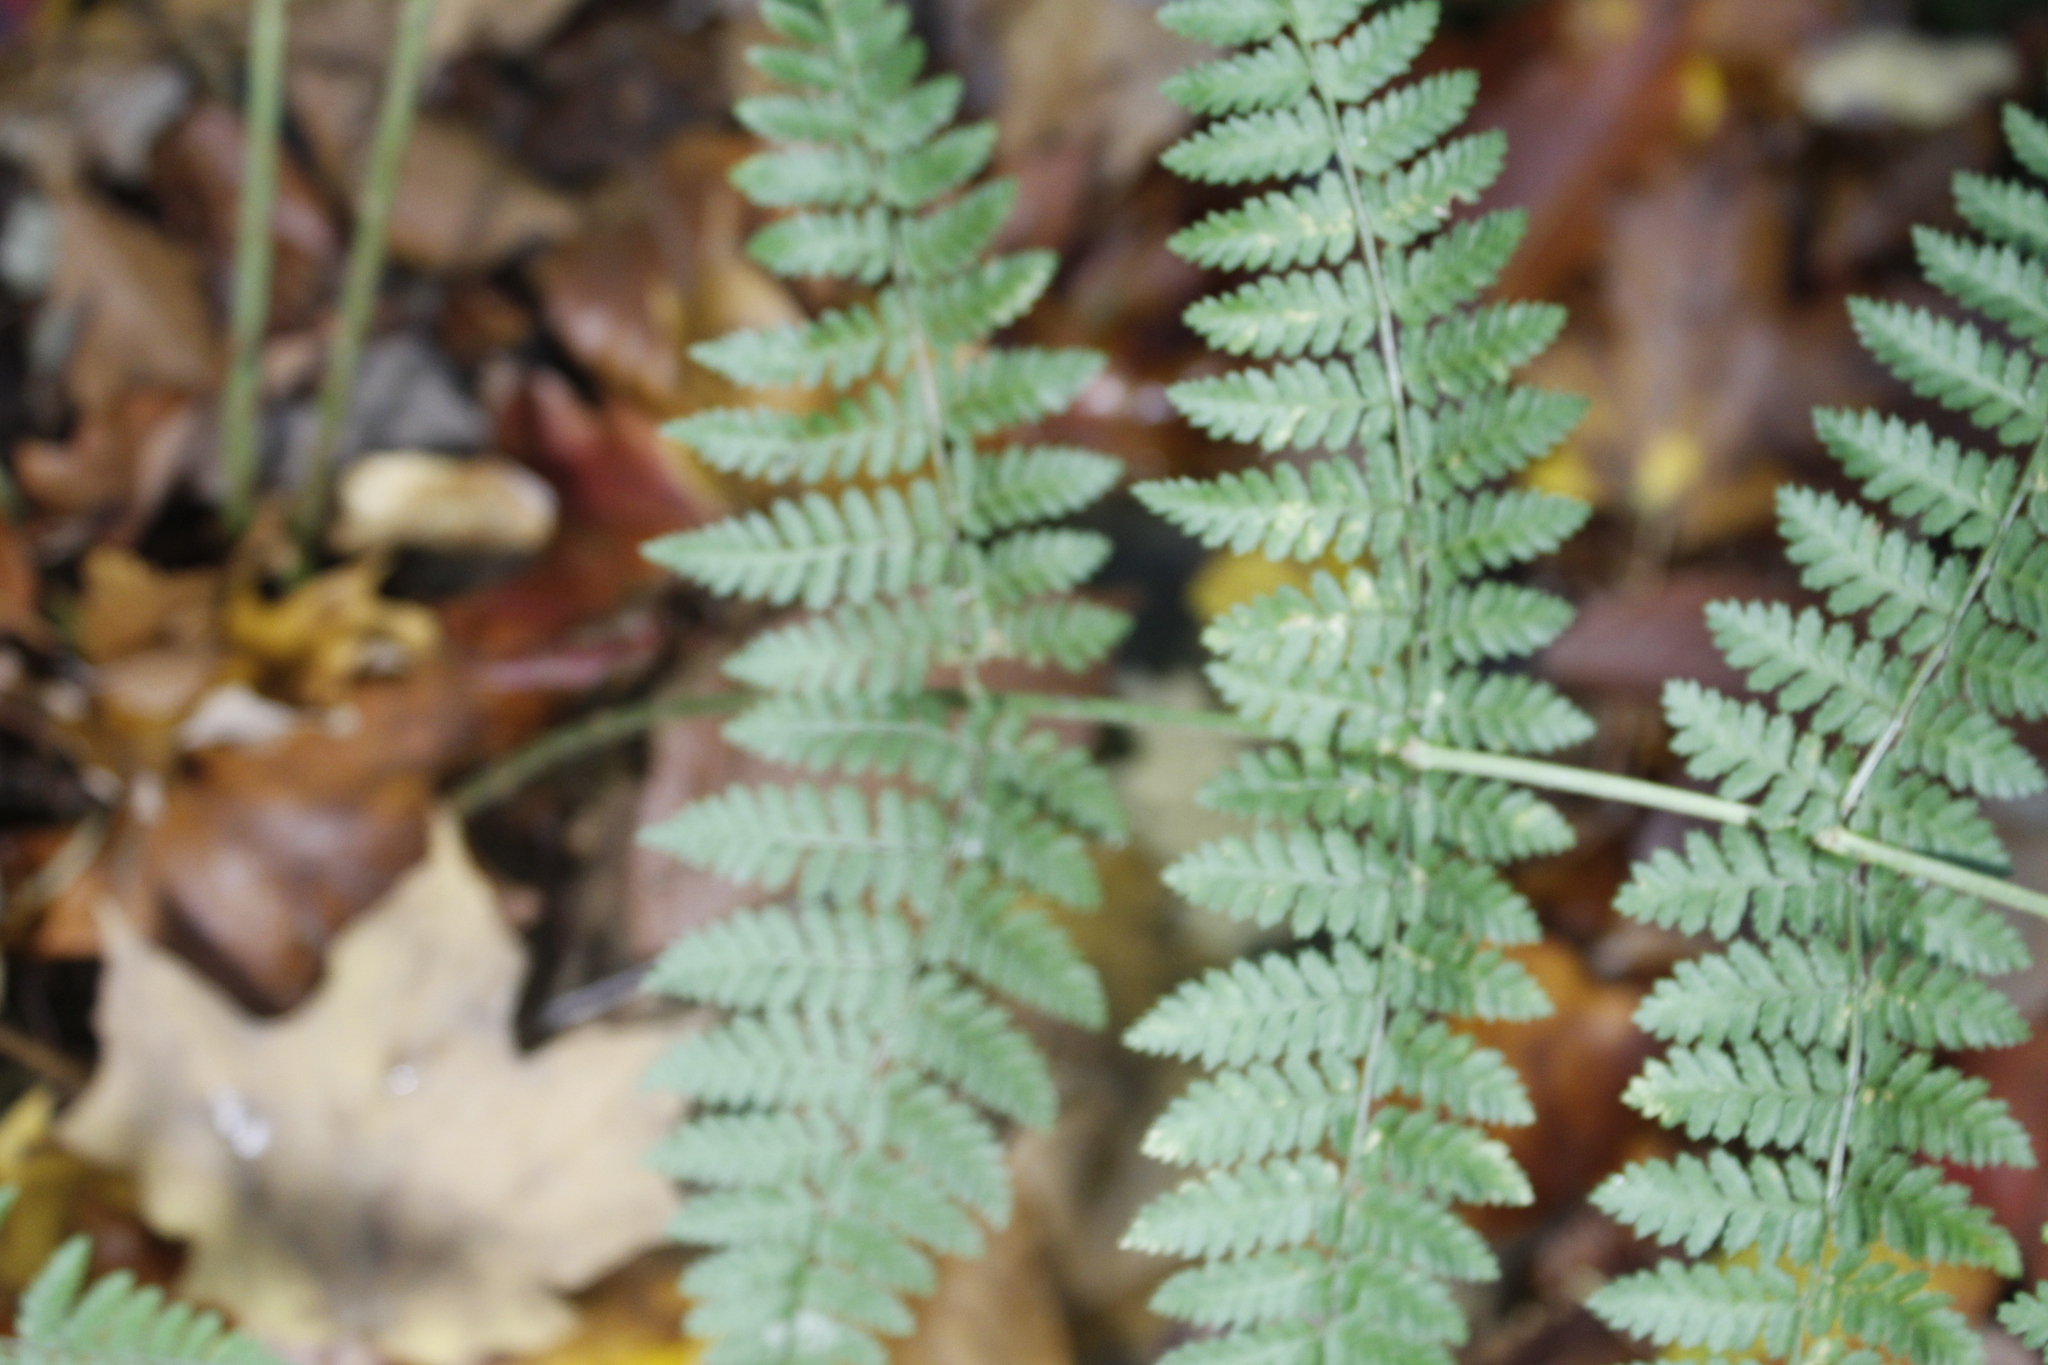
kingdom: Plantae
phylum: Tracheophyta
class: Polypodiopsida
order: Polypodiales
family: Dryopteridaceae
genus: Dryopteris
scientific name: Dryopteris intermedia
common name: Evergreen wood fern
